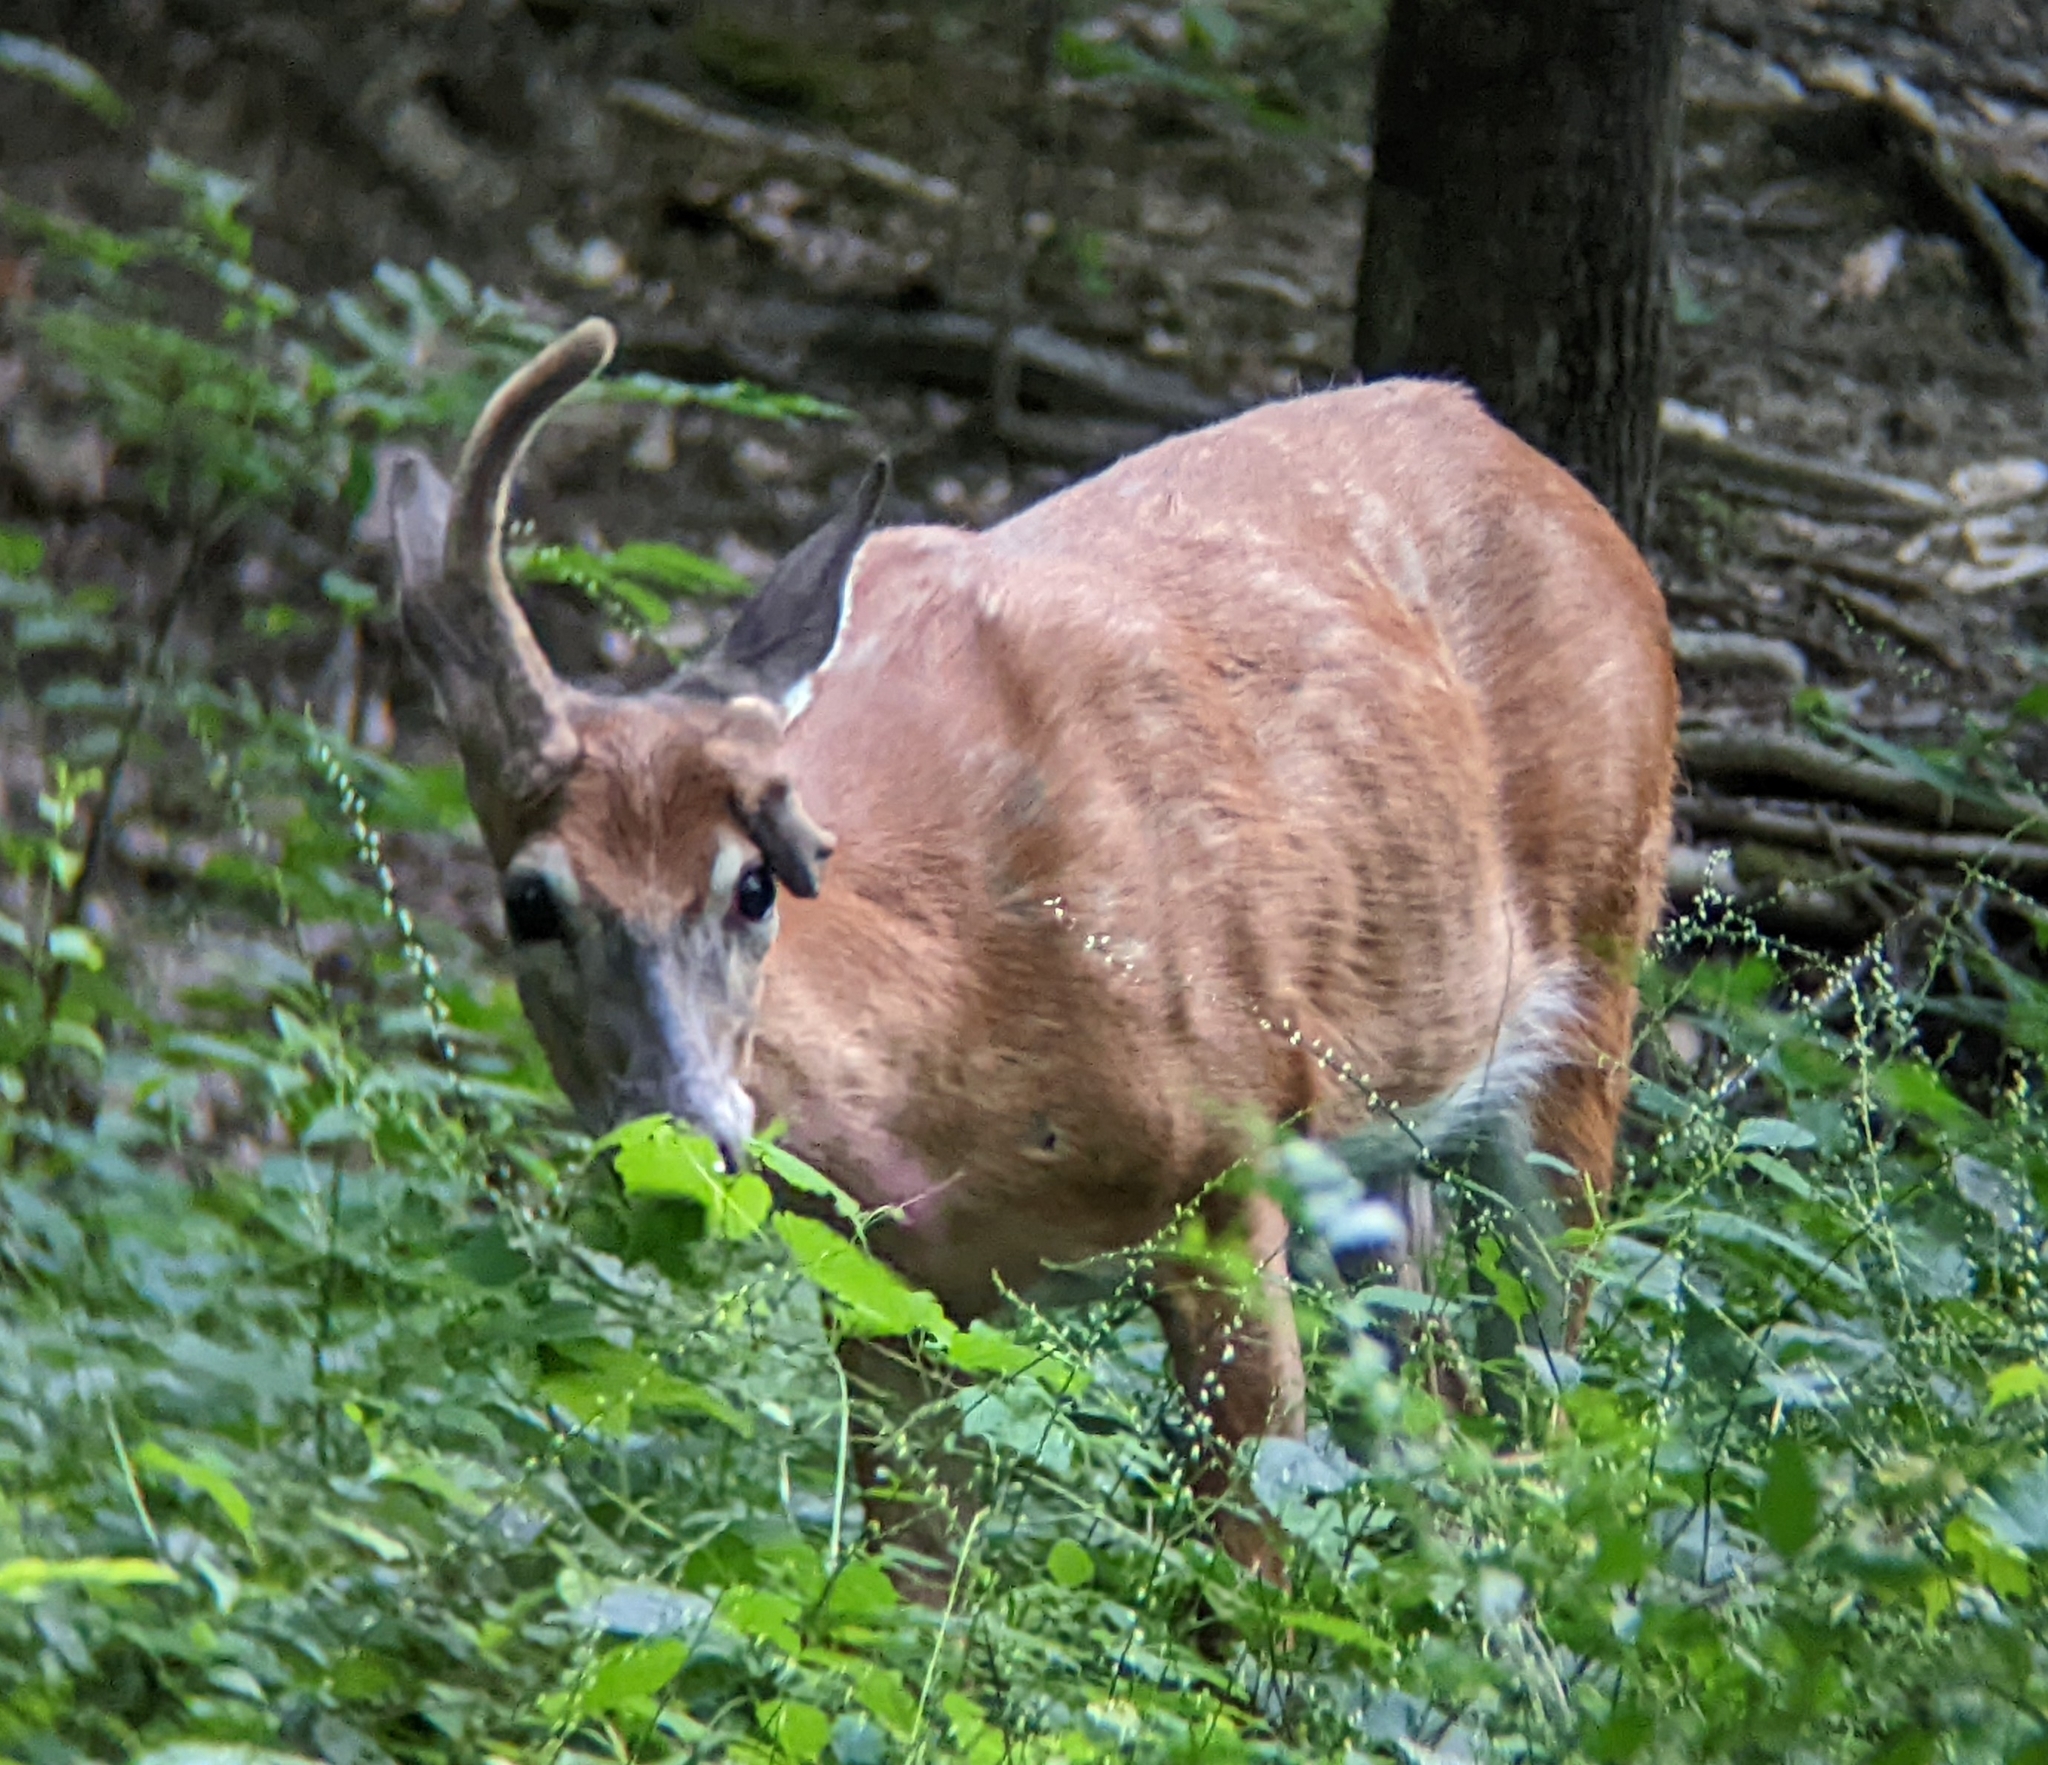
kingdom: Animalia
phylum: Chordata
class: Mammalia
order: Artiodactyla
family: Cervidae
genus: Odocoileus
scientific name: Odocoileus virginianus
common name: White-tailed deer
